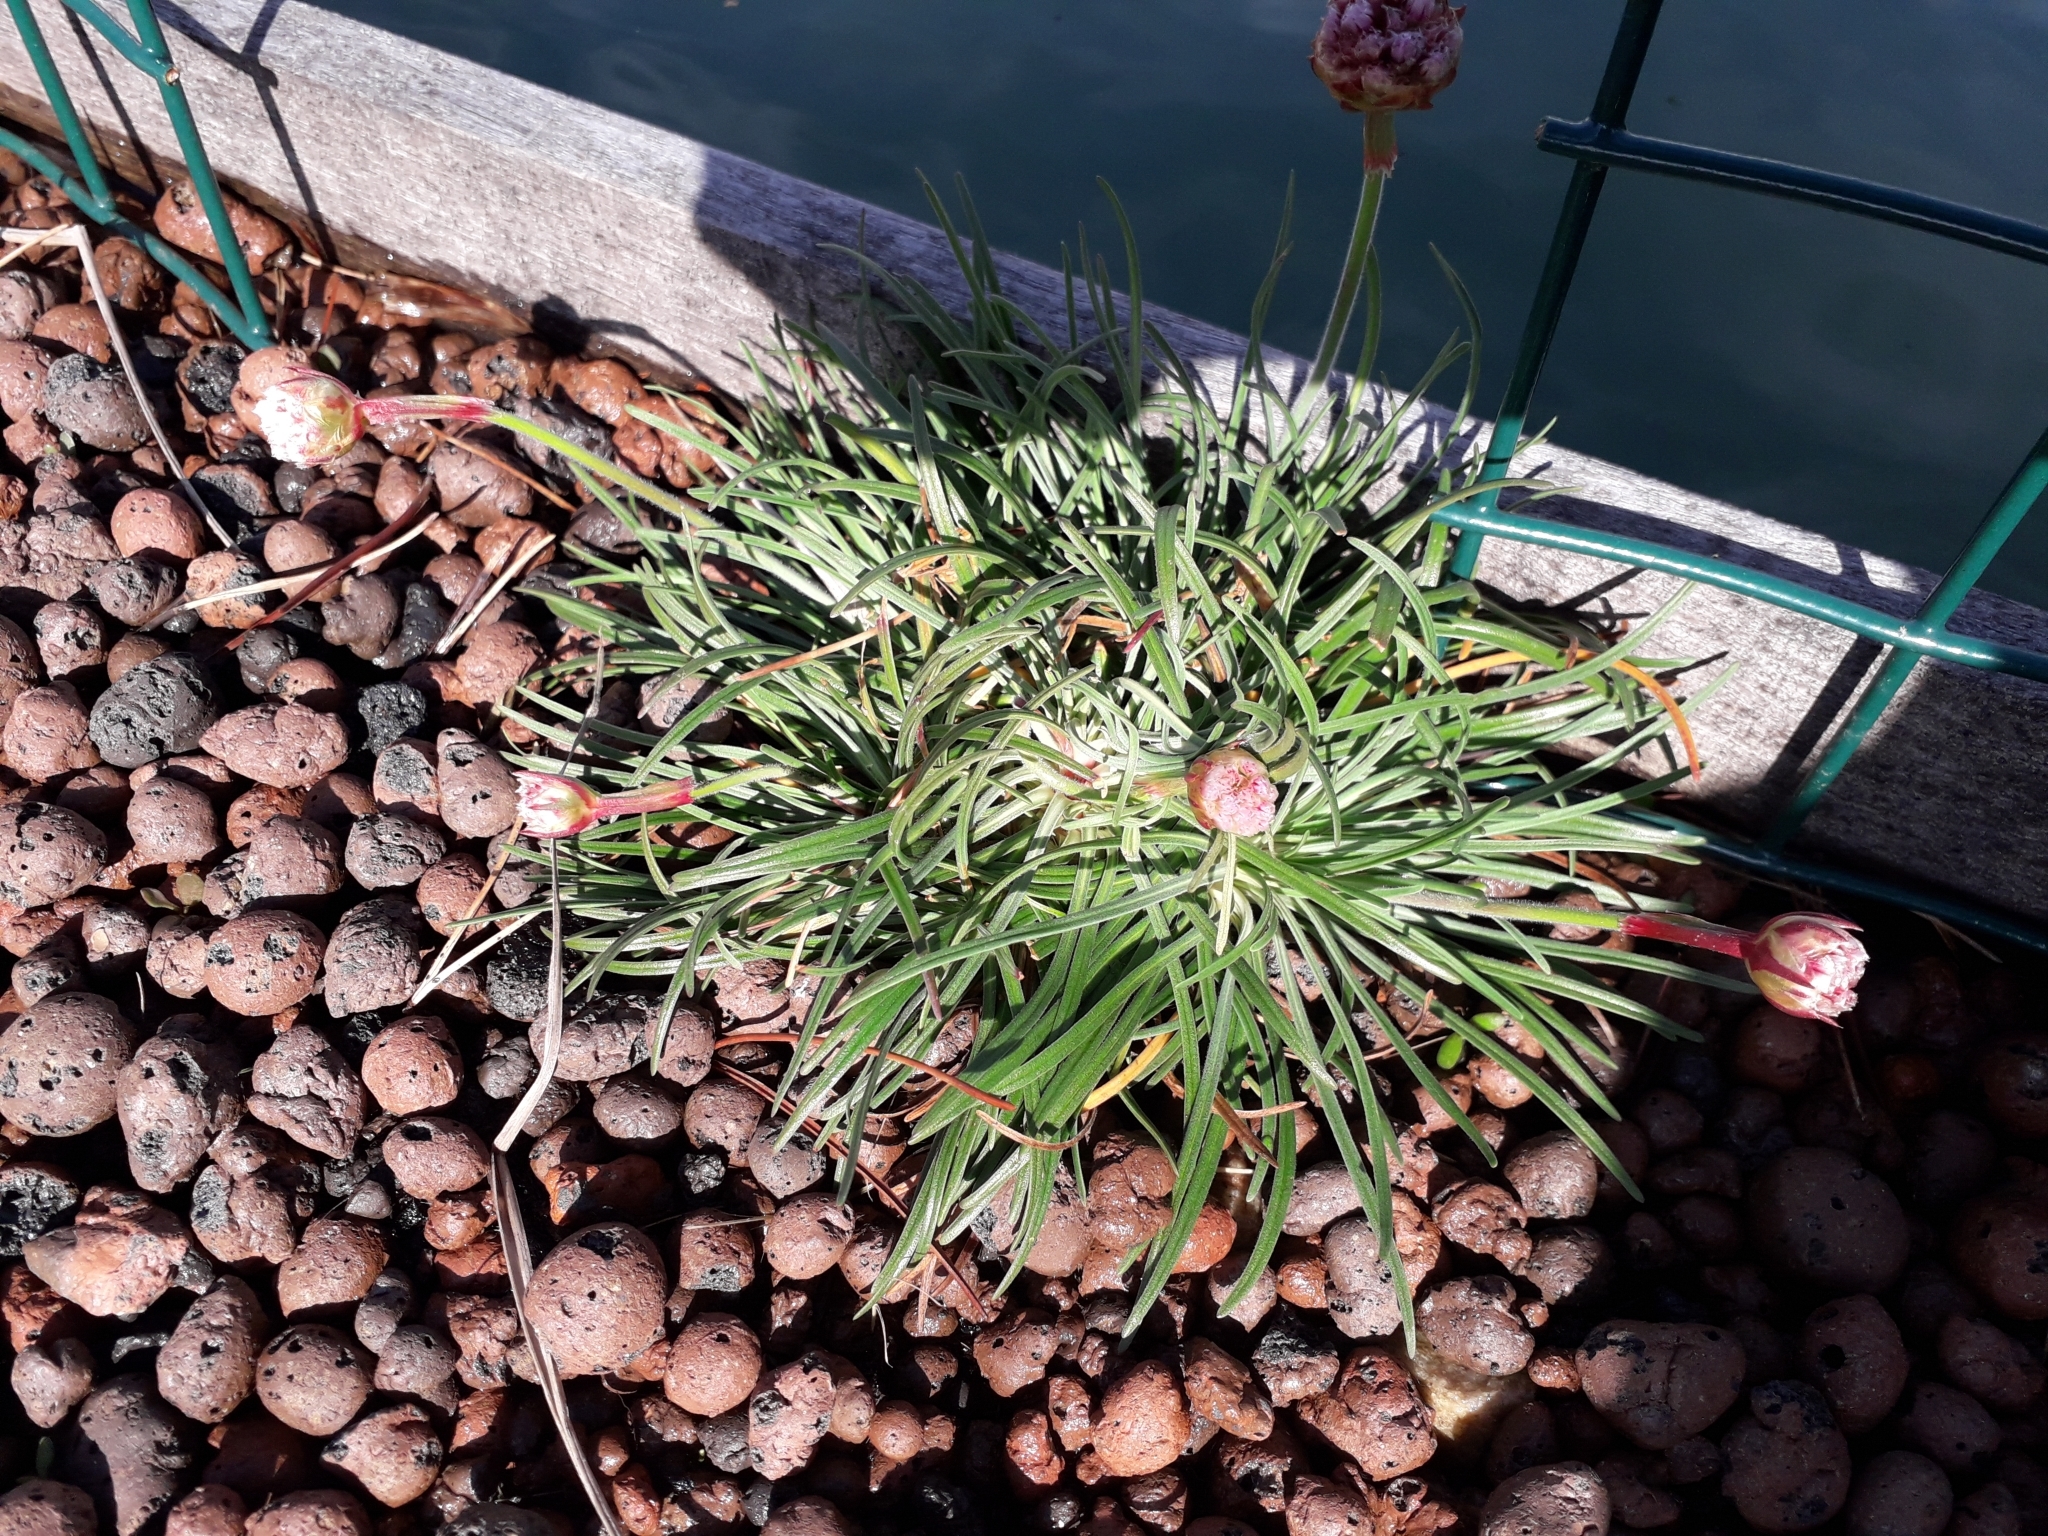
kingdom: Plantae
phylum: Tracheophyta
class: Magnoliopsida
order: Caryophyllales
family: Plumbaginaceae
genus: Armeria
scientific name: Armeria maritima
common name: Thrift
